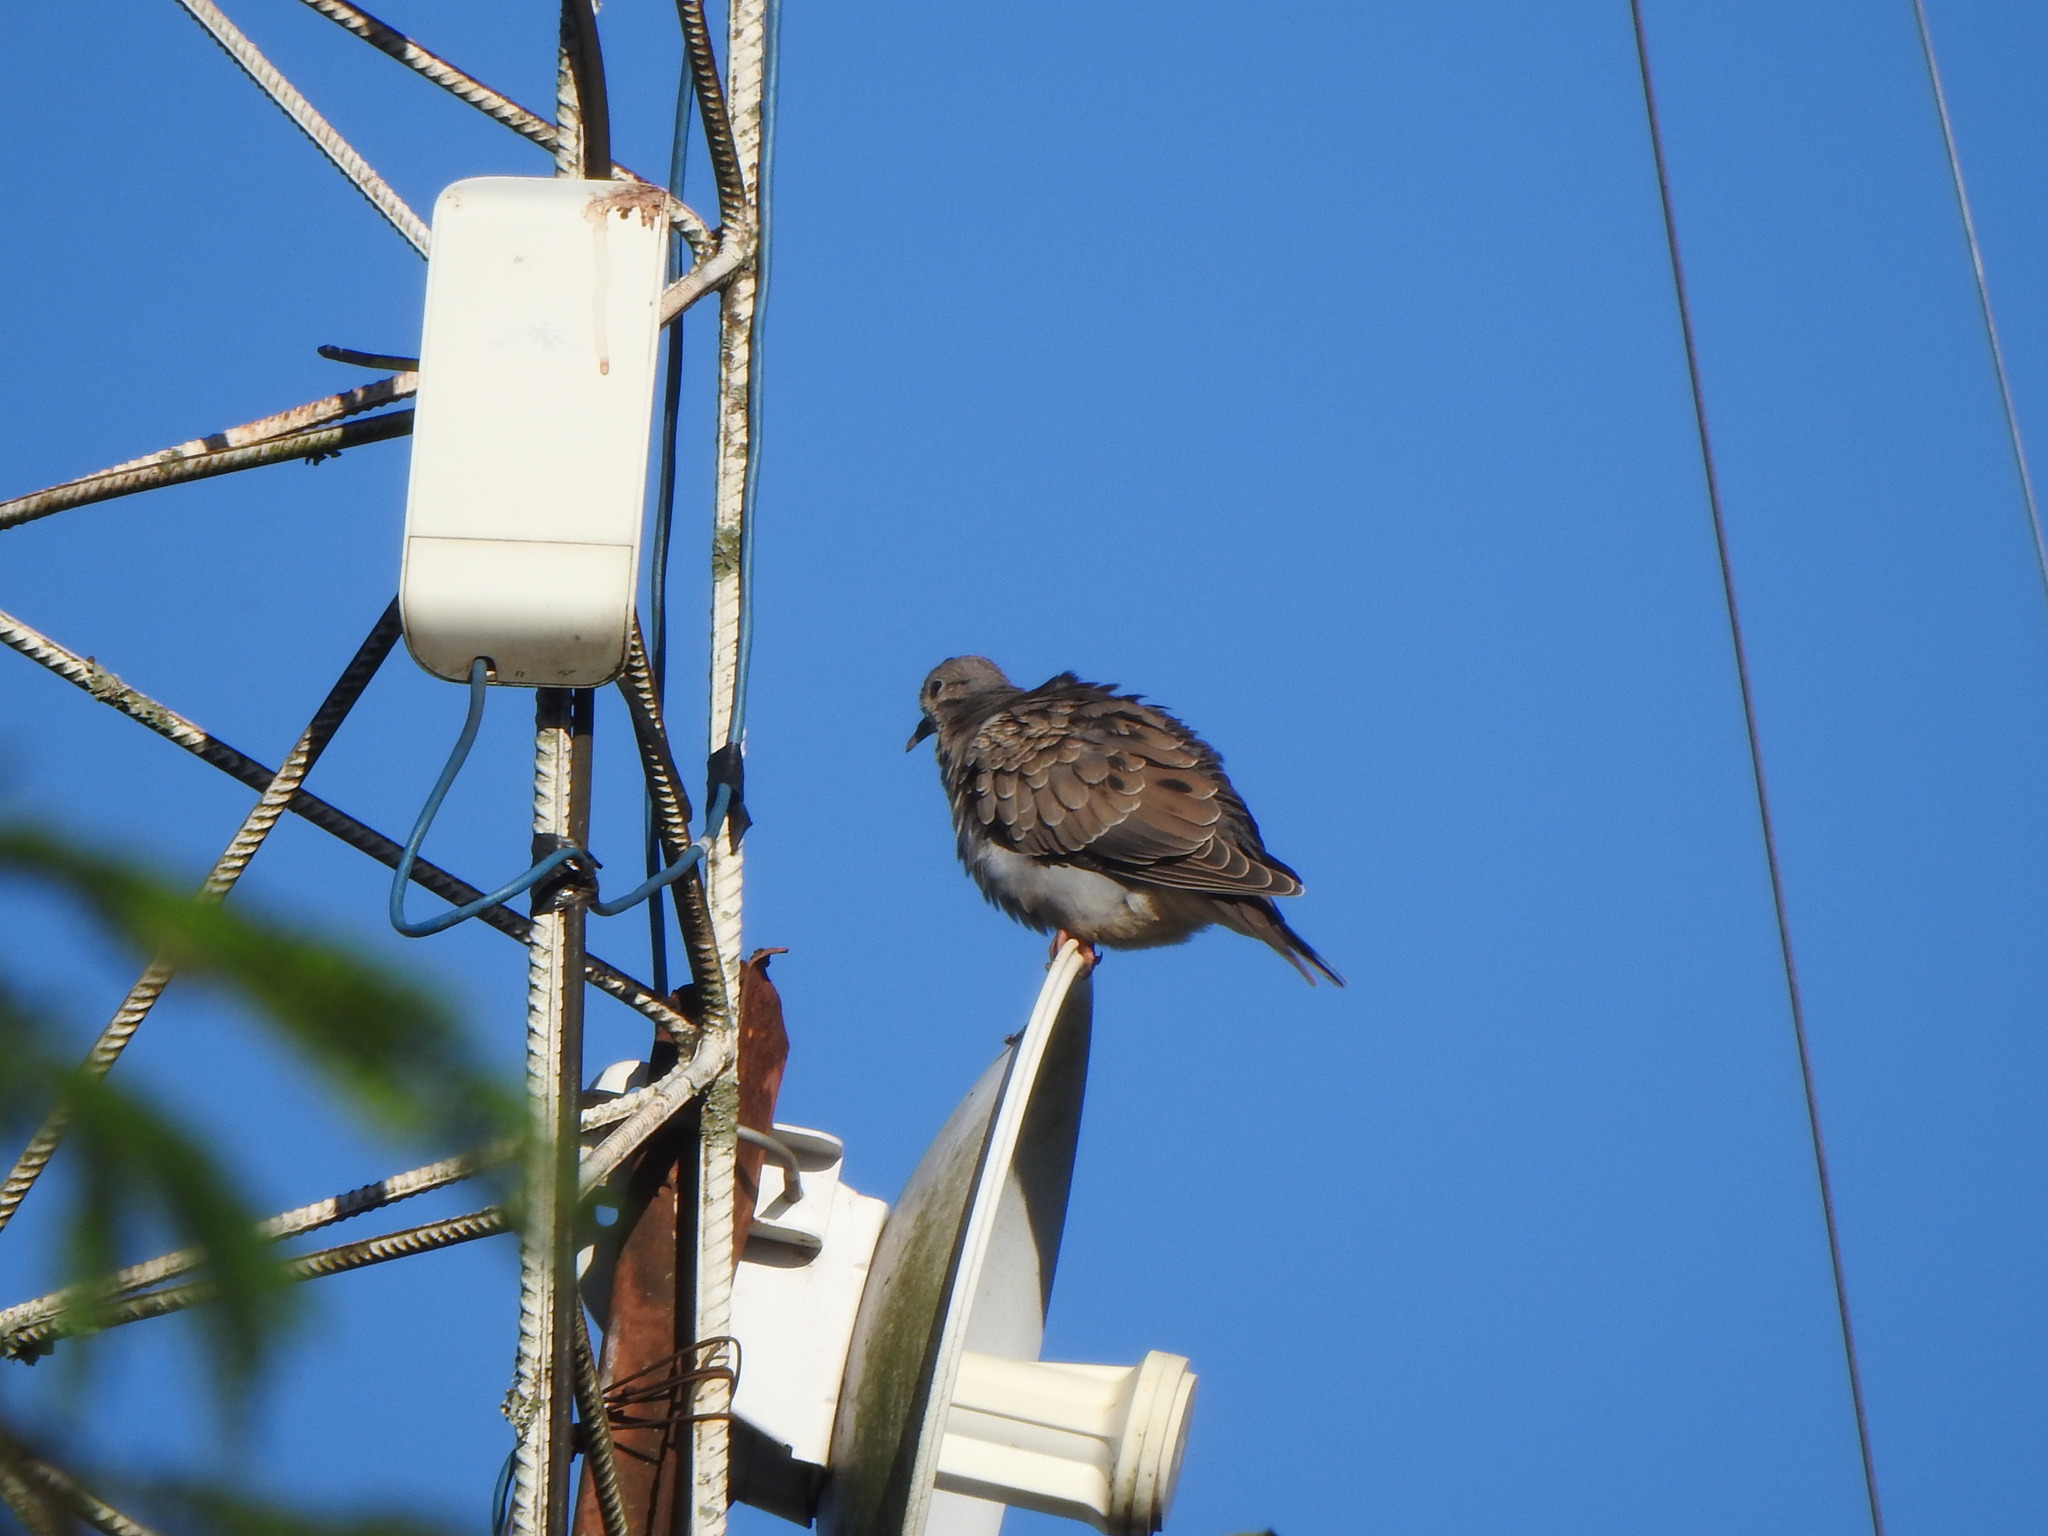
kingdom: Animalia
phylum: Chordata
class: Aves
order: Columbiformes
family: Columbidae
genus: Zenaida
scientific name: Zenaida auriculata
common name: Eared dove
